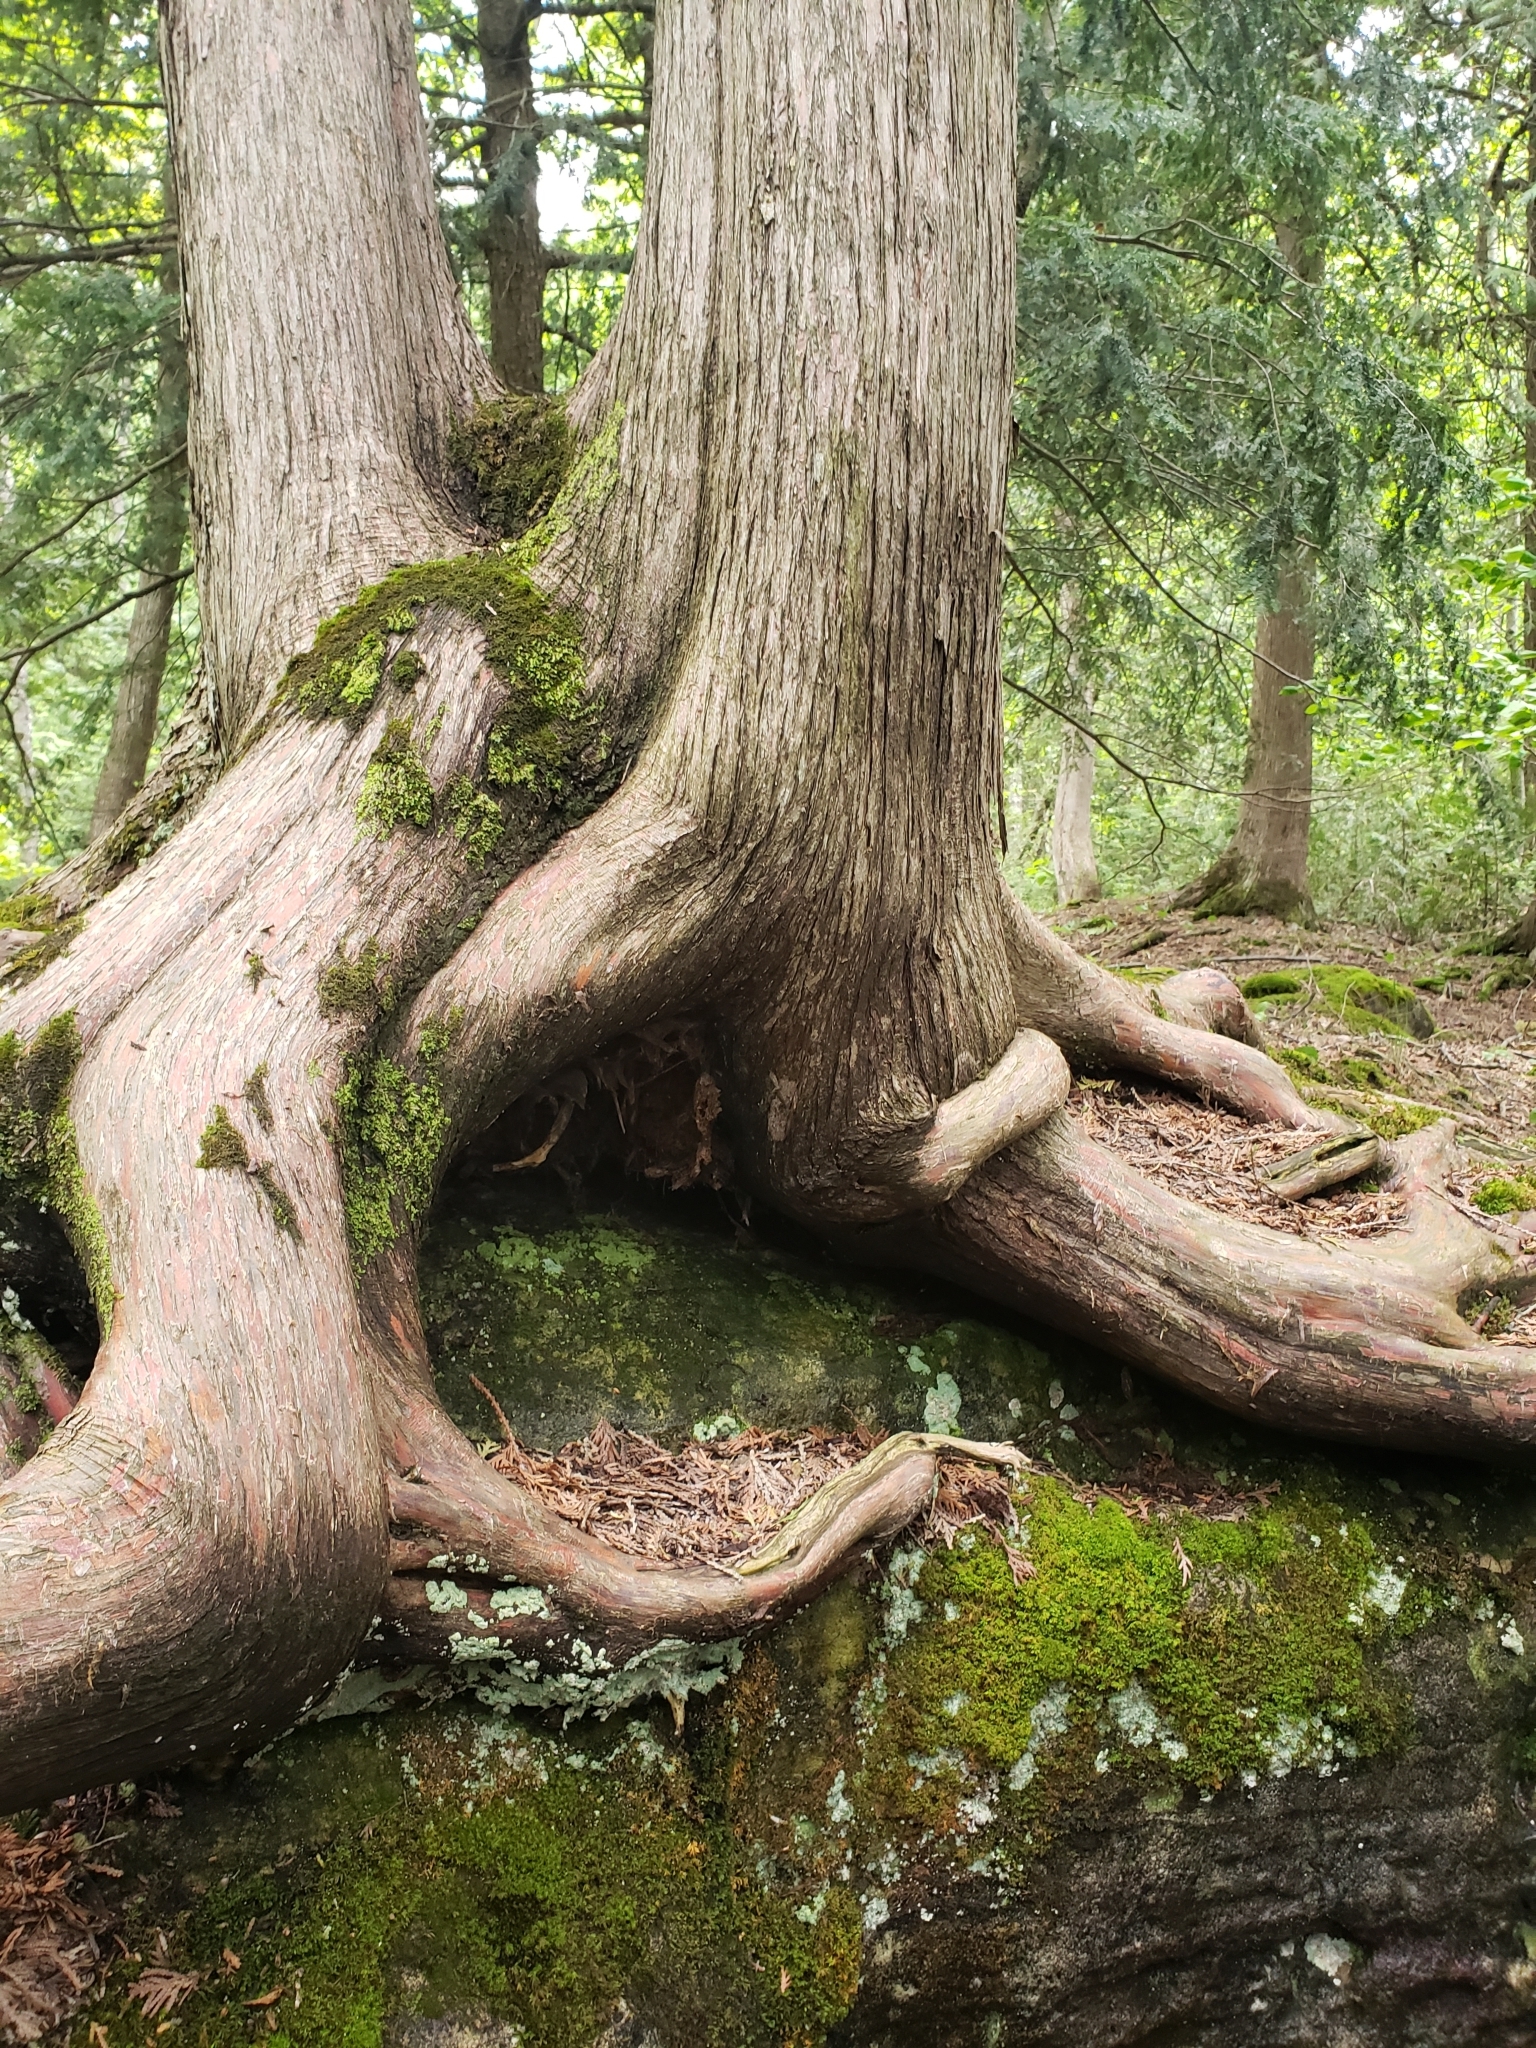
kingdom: Plantae
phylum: Tracheophyta
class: Pinopsida
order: Pinales
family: Cupressaceae
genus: Thuja
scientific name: Thuja occidentalis
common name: Northern white-cedar
